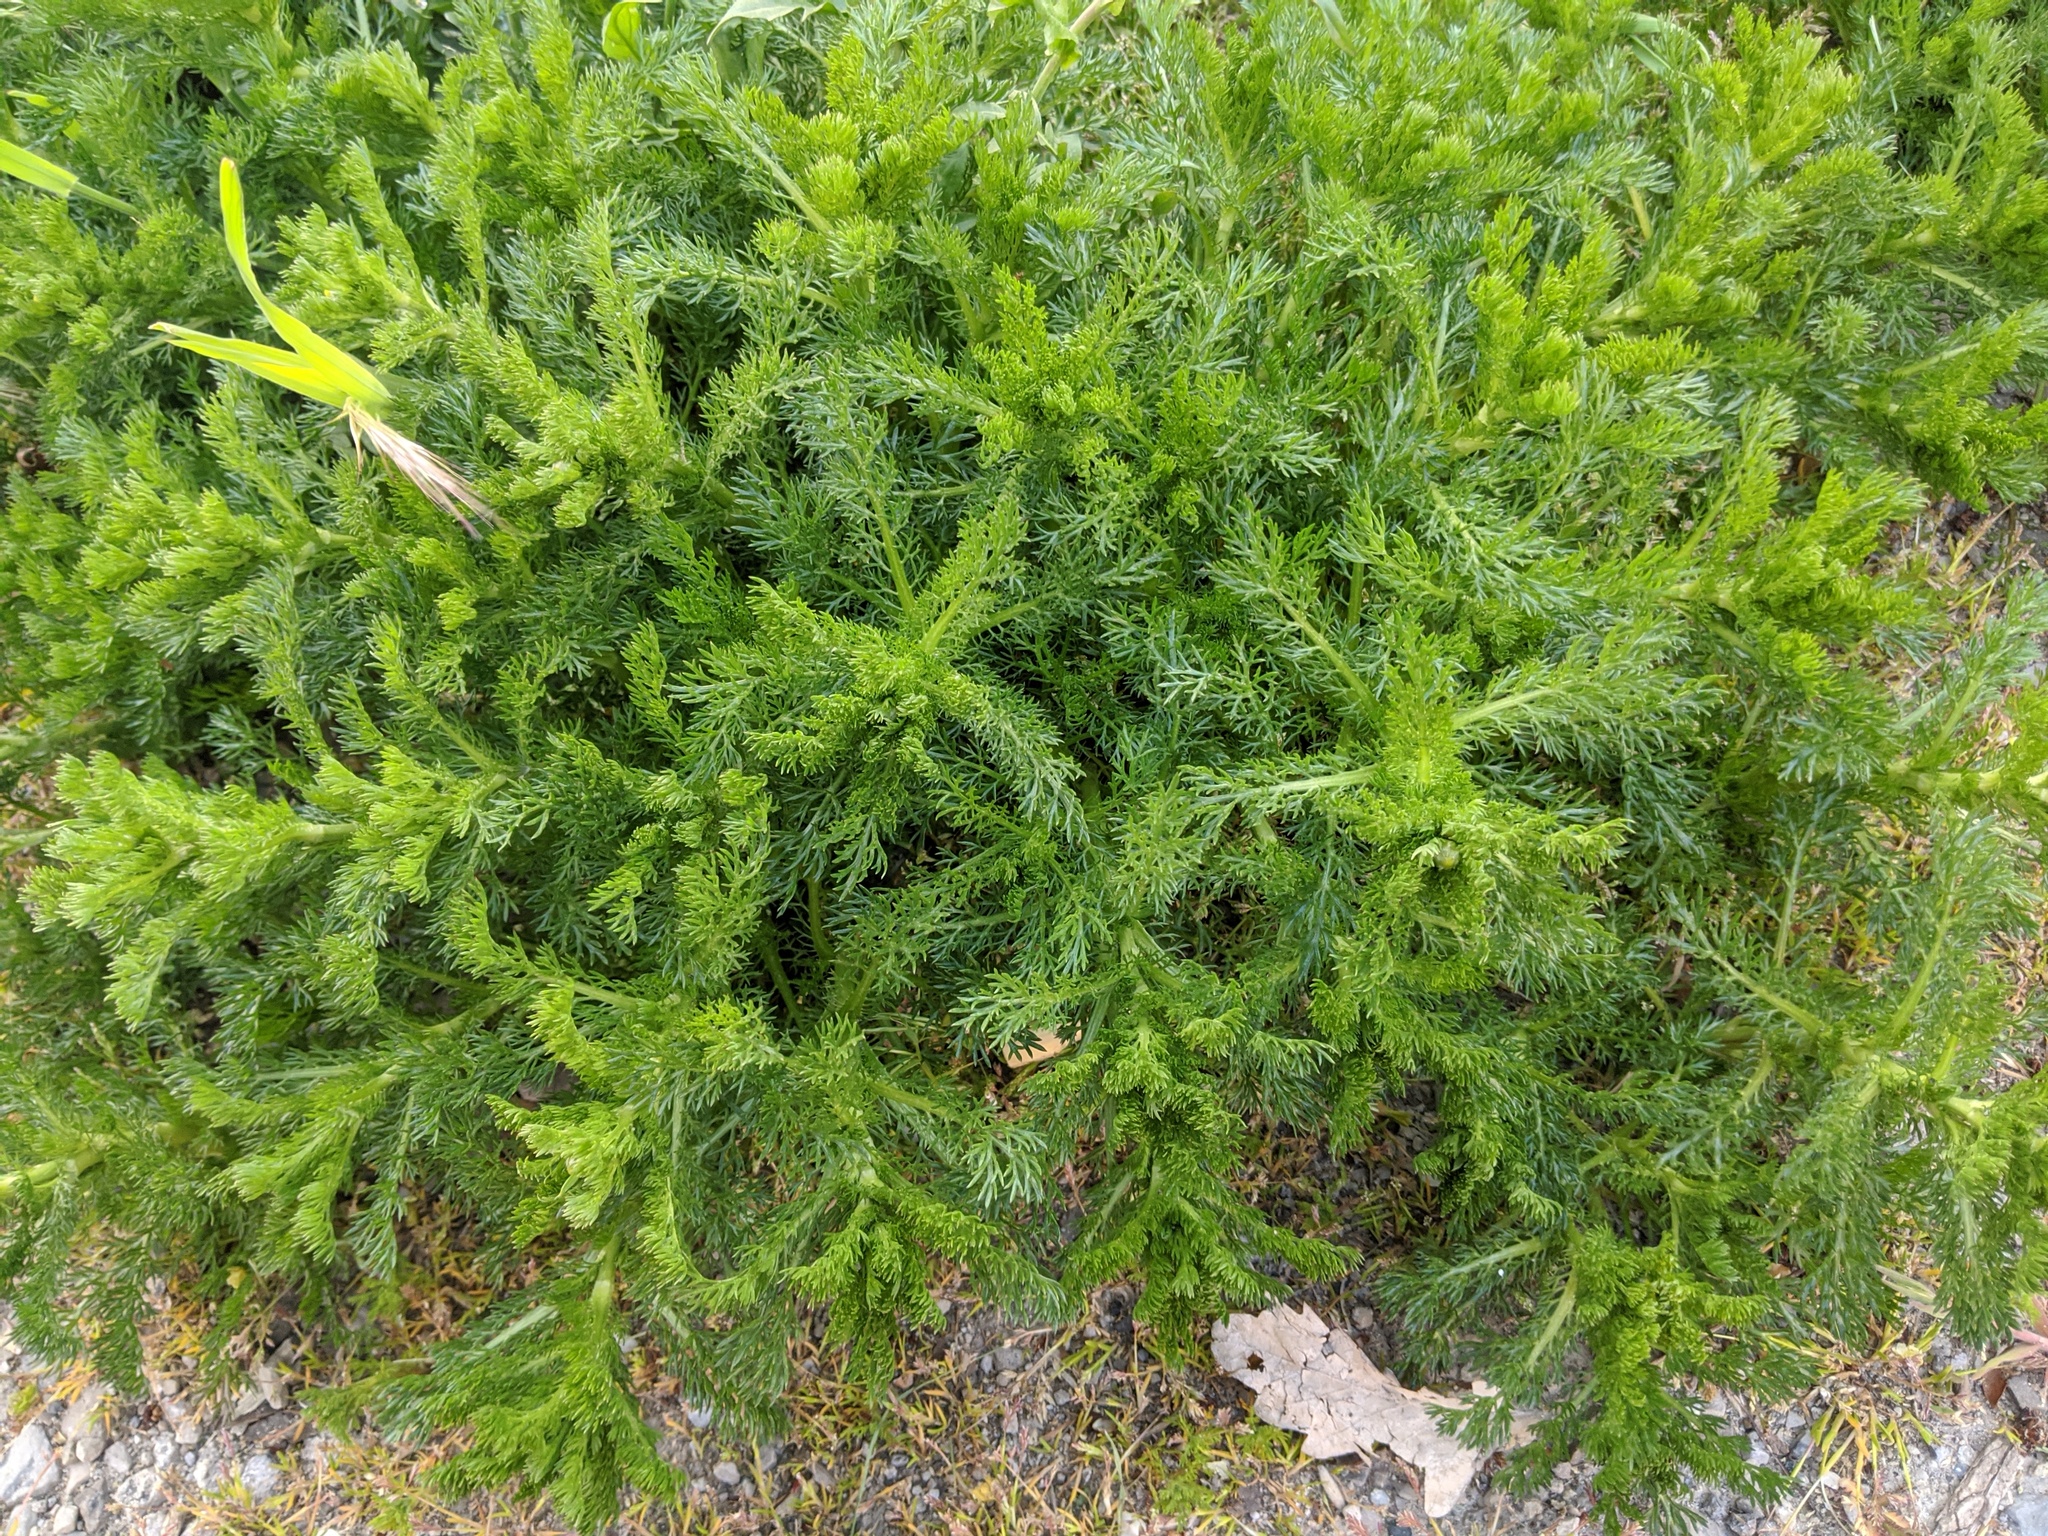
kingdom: Plantae
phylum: Tracheophyta
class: Magnoliopsida
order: Asterales
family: Asteraceae
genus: Matricaria
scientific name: Matricaria discoidea
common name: Disc mayweed
